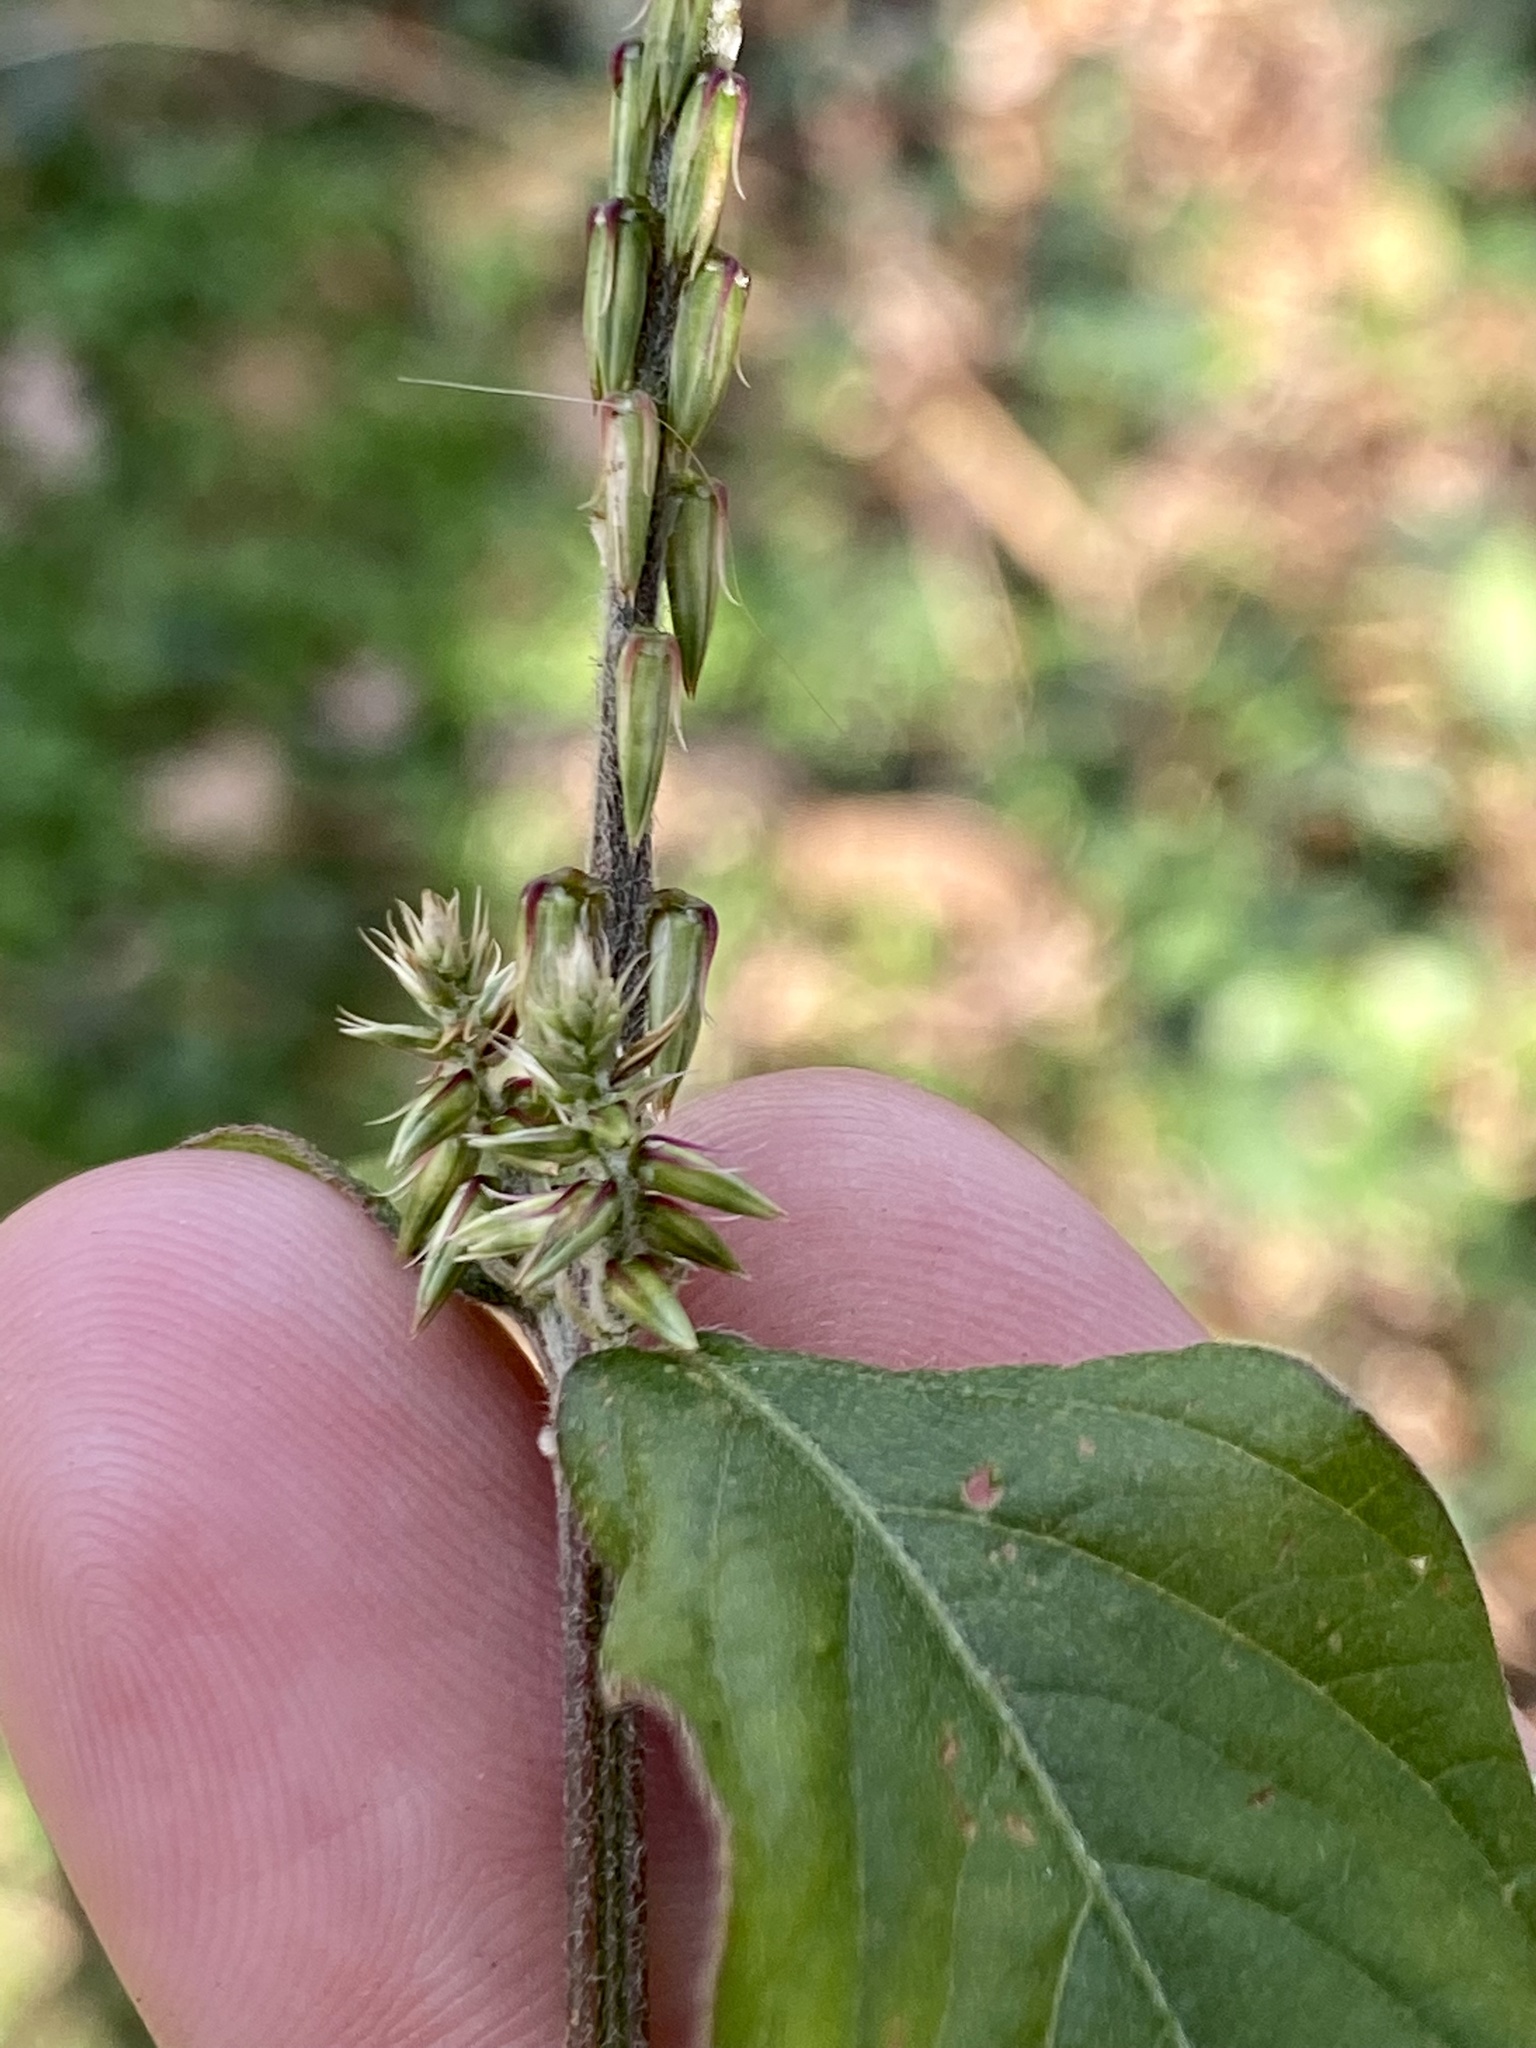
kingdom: Plantae
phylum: Tracheophyta
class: Magnoliopsida
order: Caryophyllales
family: Amaranthaceae
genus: Achyranthes
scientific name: Achyranthes bidentata
